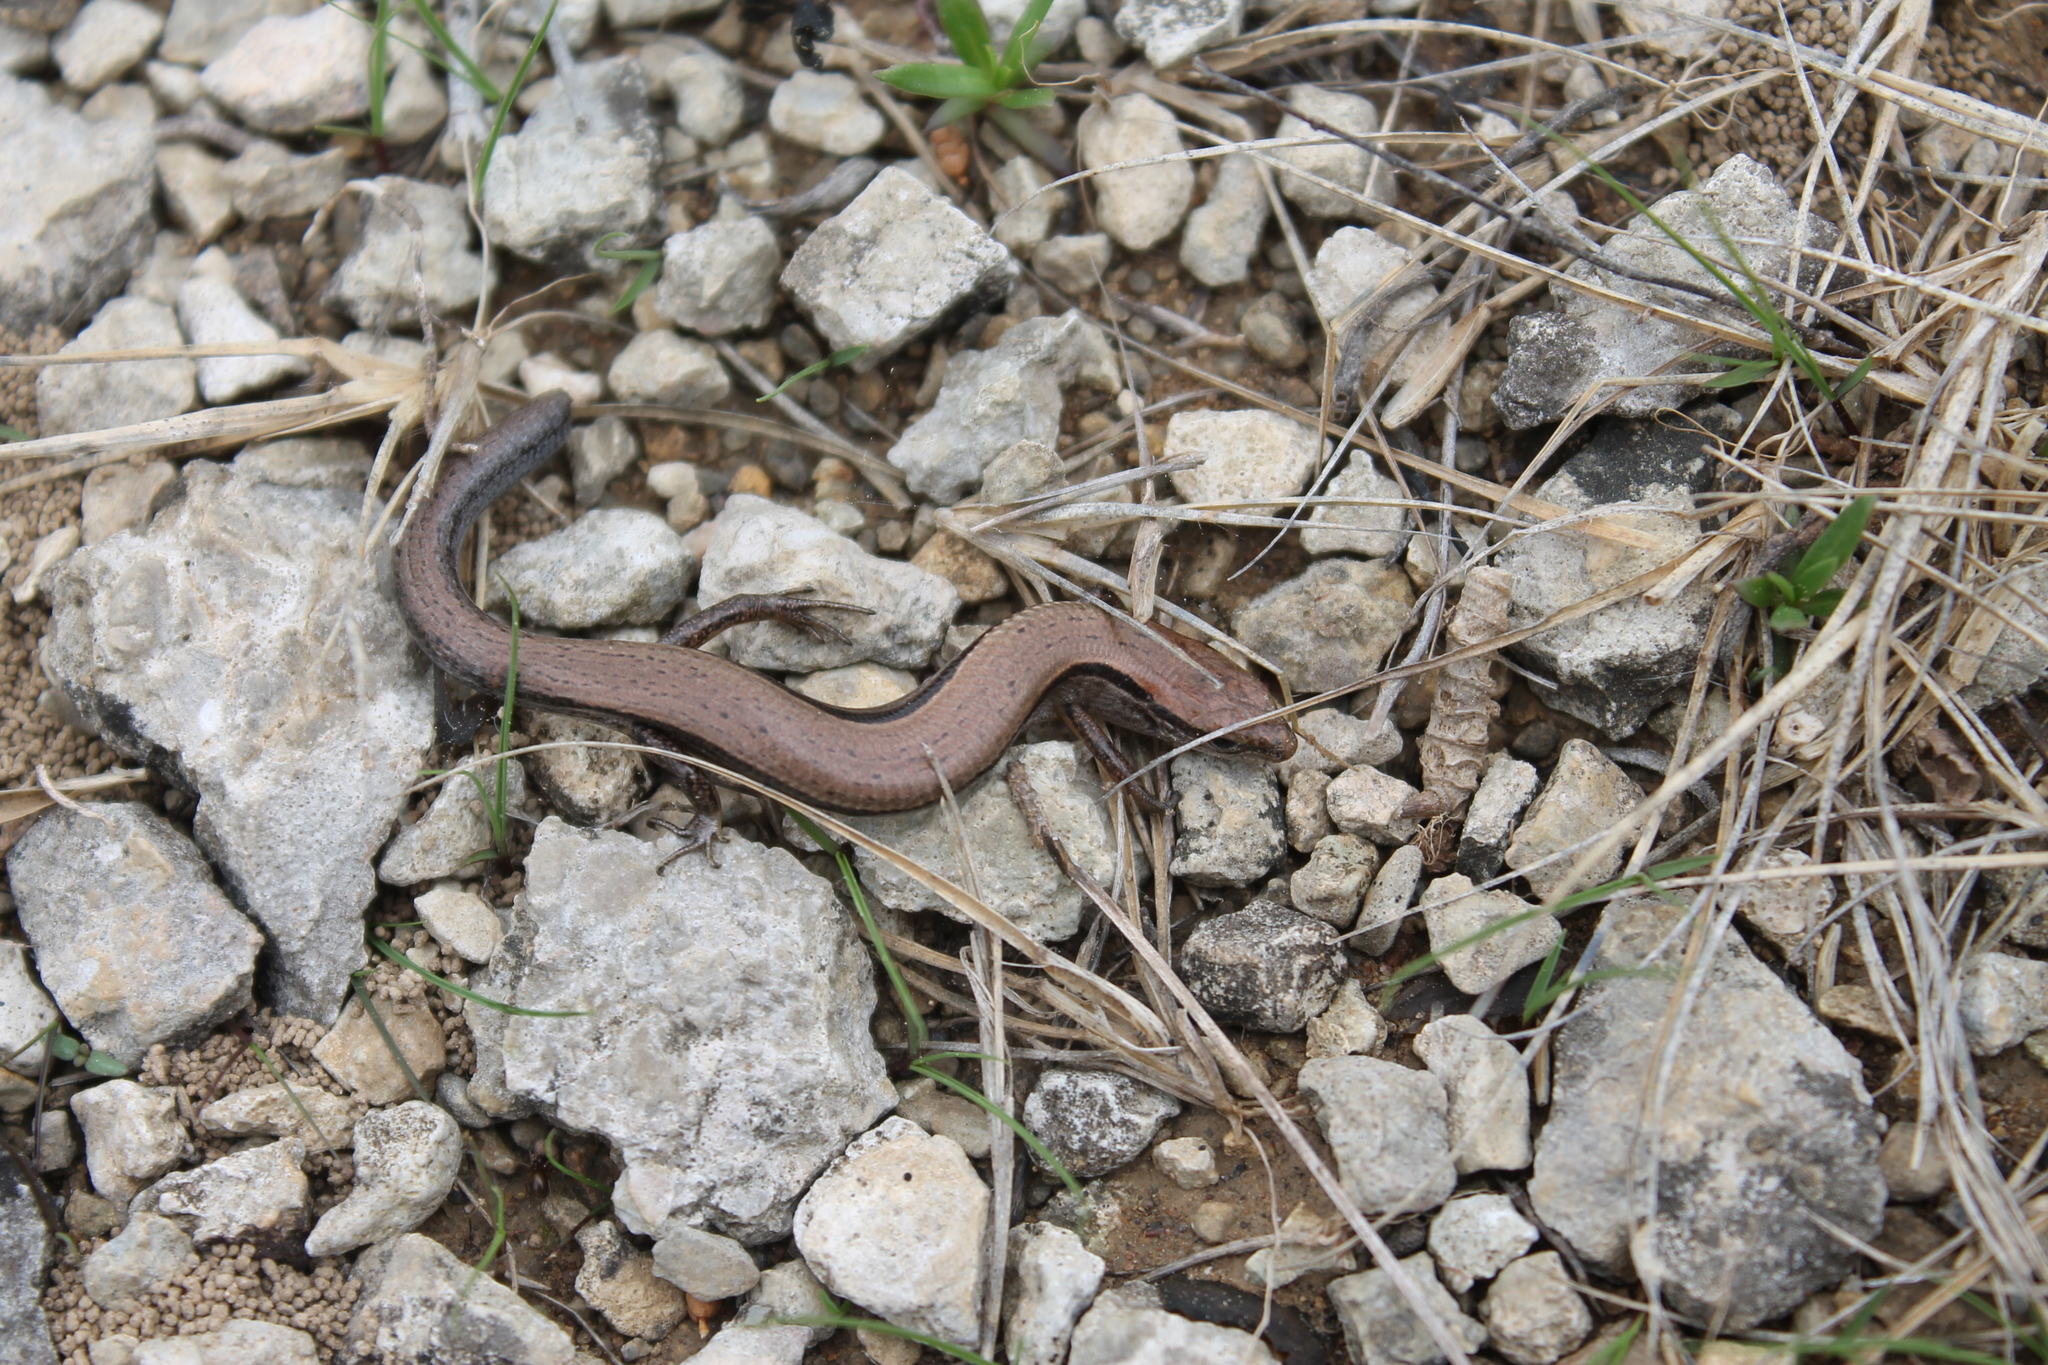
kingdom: Animalia
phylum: Chordata
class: Squamata
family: Scincidae
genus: Scincella
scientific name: Scincella lateralis
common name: Ground skink
